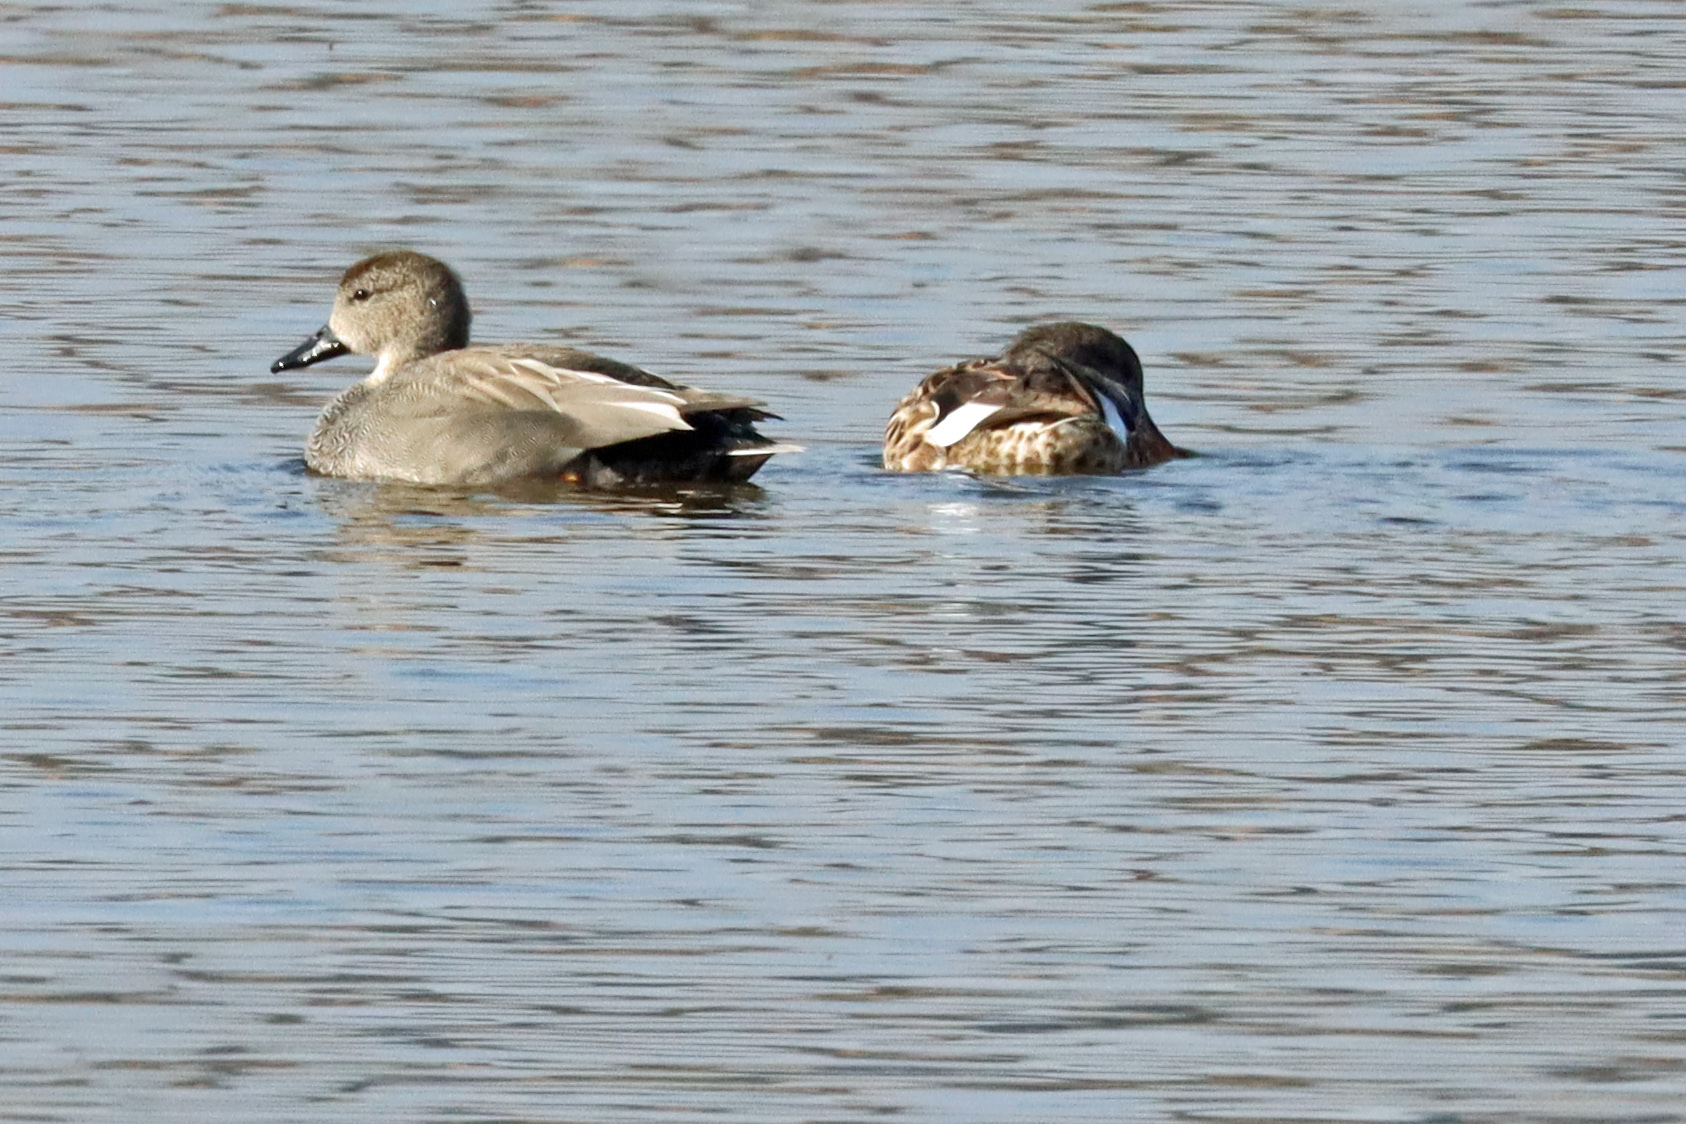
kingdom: Animalia
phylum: Chordata
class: Aves
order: Anseriformes
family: Anatidae
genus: Mareca
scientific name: Mareca strepera
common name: Gadwall
